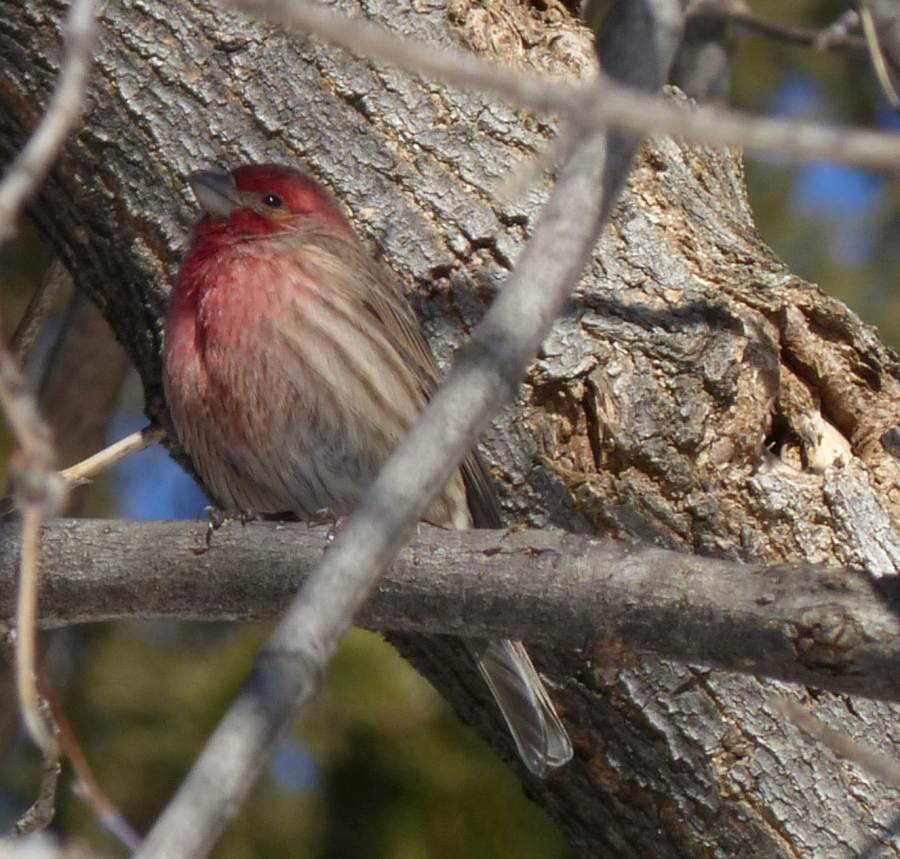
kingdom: Animalia
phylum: Chordata
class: Aves
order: Passeriformes
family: Fringillidae
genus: Haemorhous
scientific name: Haemorhous mexicanus
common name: House finch
